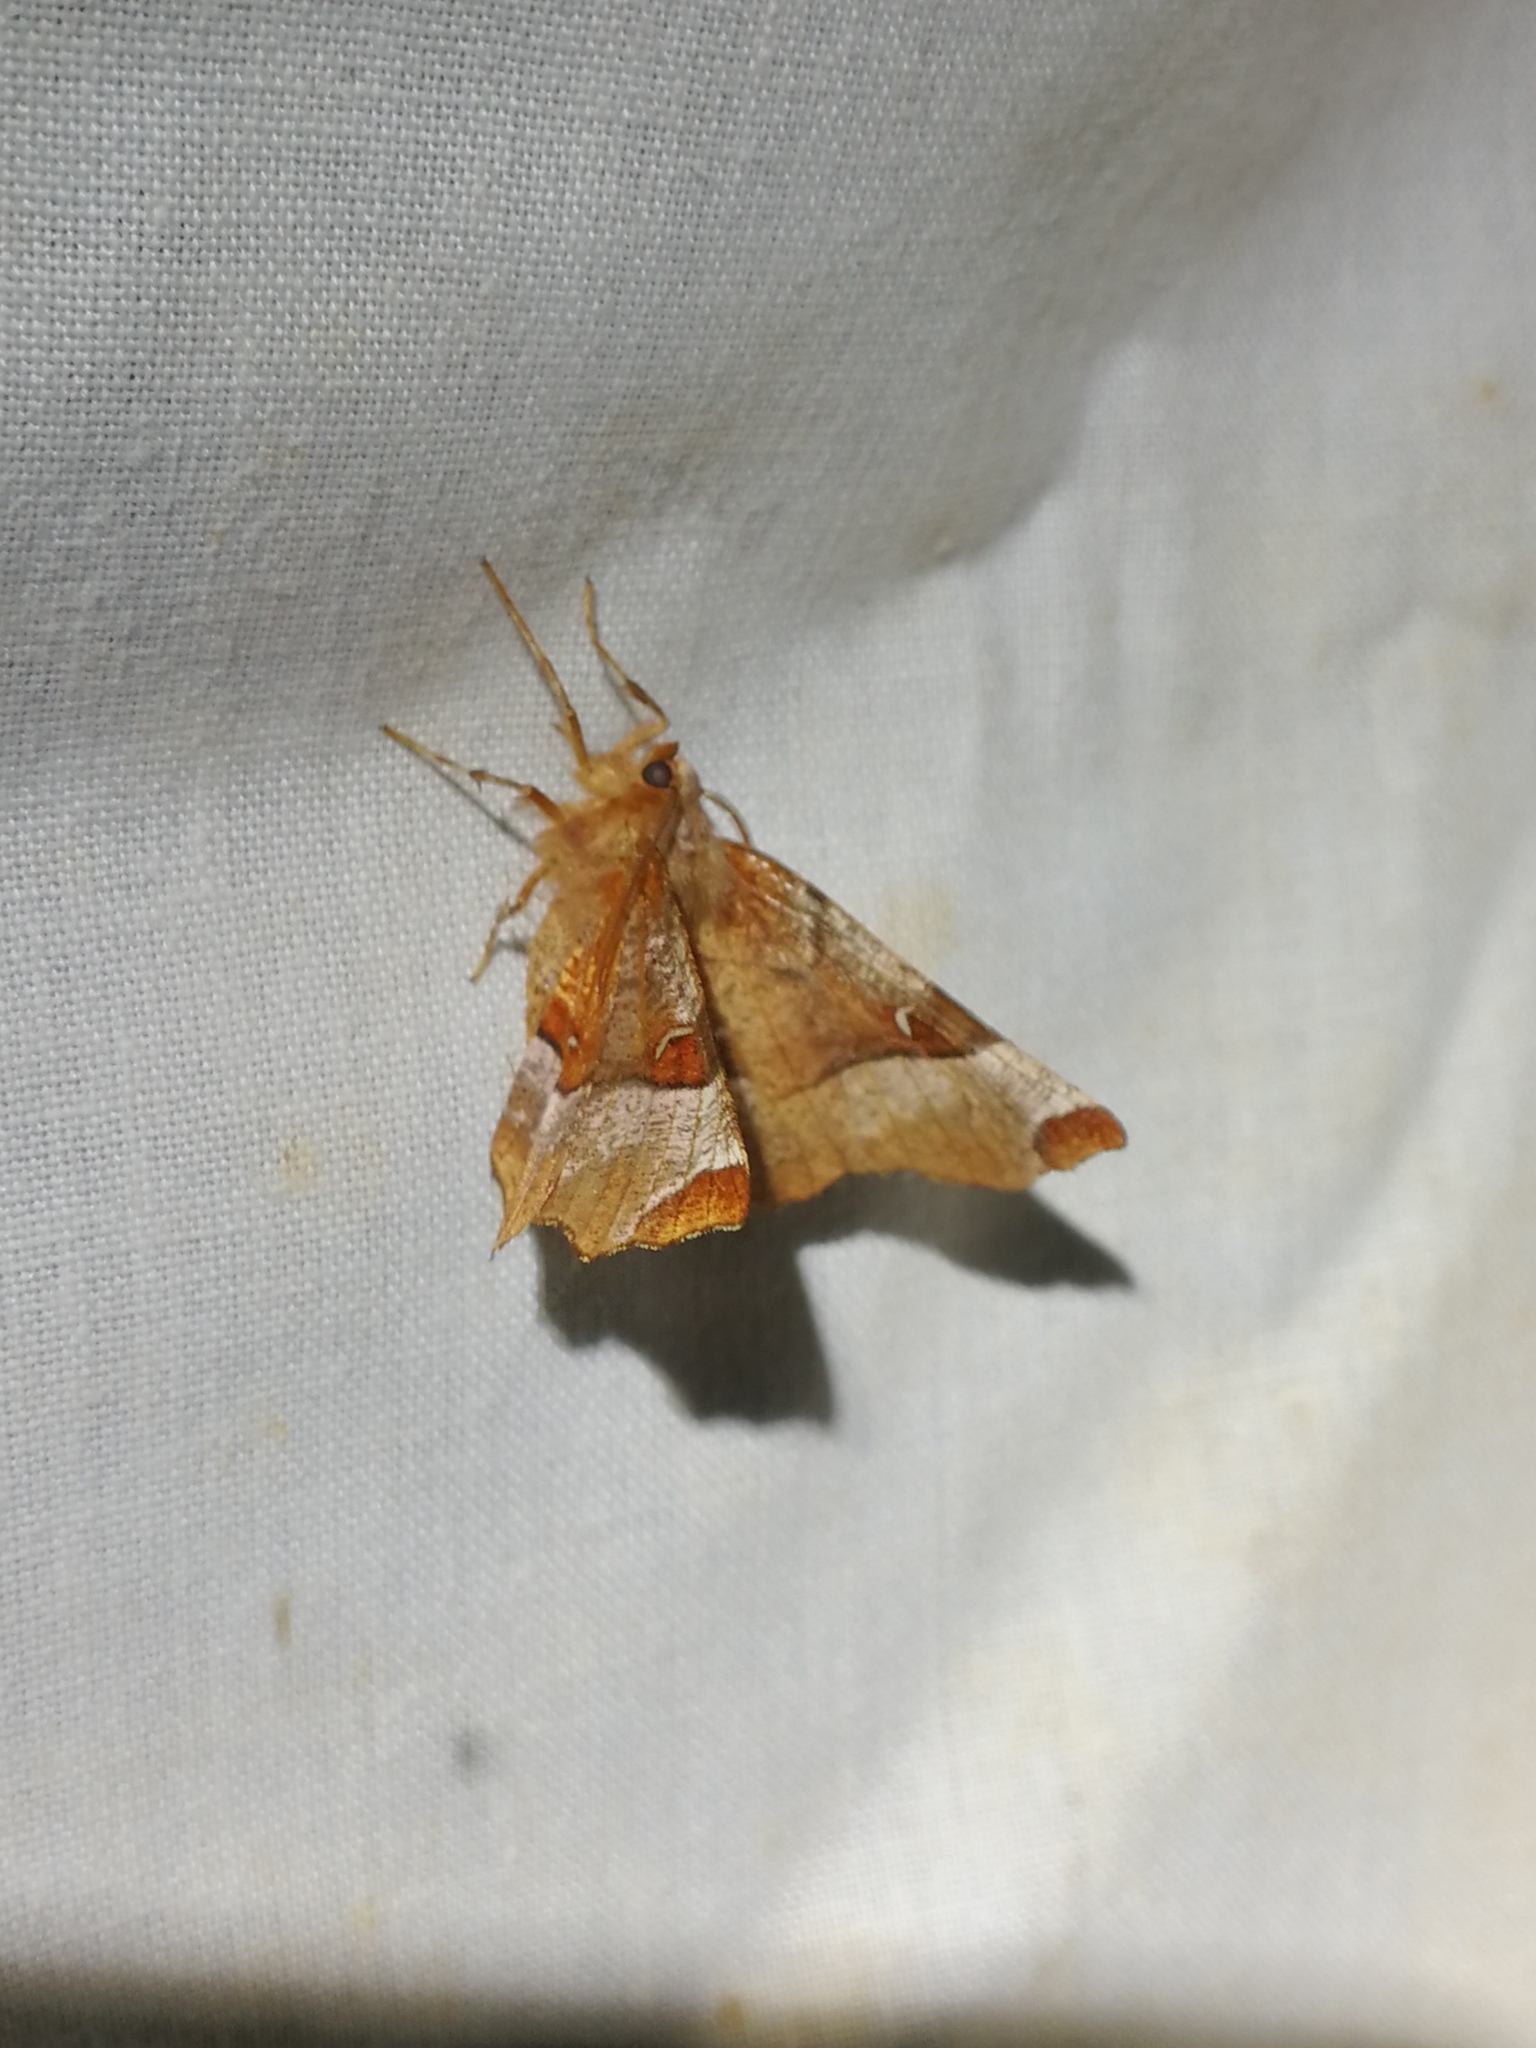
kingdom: Animalia
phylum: Arthropoda
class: Insecta
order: Lepidoptera
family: Geometridae
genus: Selenia
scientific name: Selenia lunularia
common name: Lunar thorn
